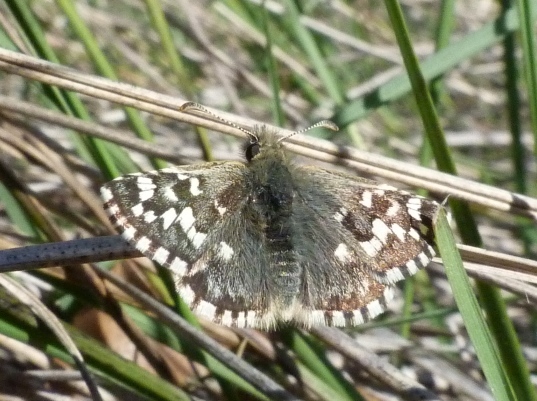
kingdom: Animalia
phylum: Arthropoda
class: Insecta
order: Lepidoptera
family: Hesperiidae
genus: Pyrgus
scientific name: Pyrgus malvoides
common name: Southern grizzled skipper
